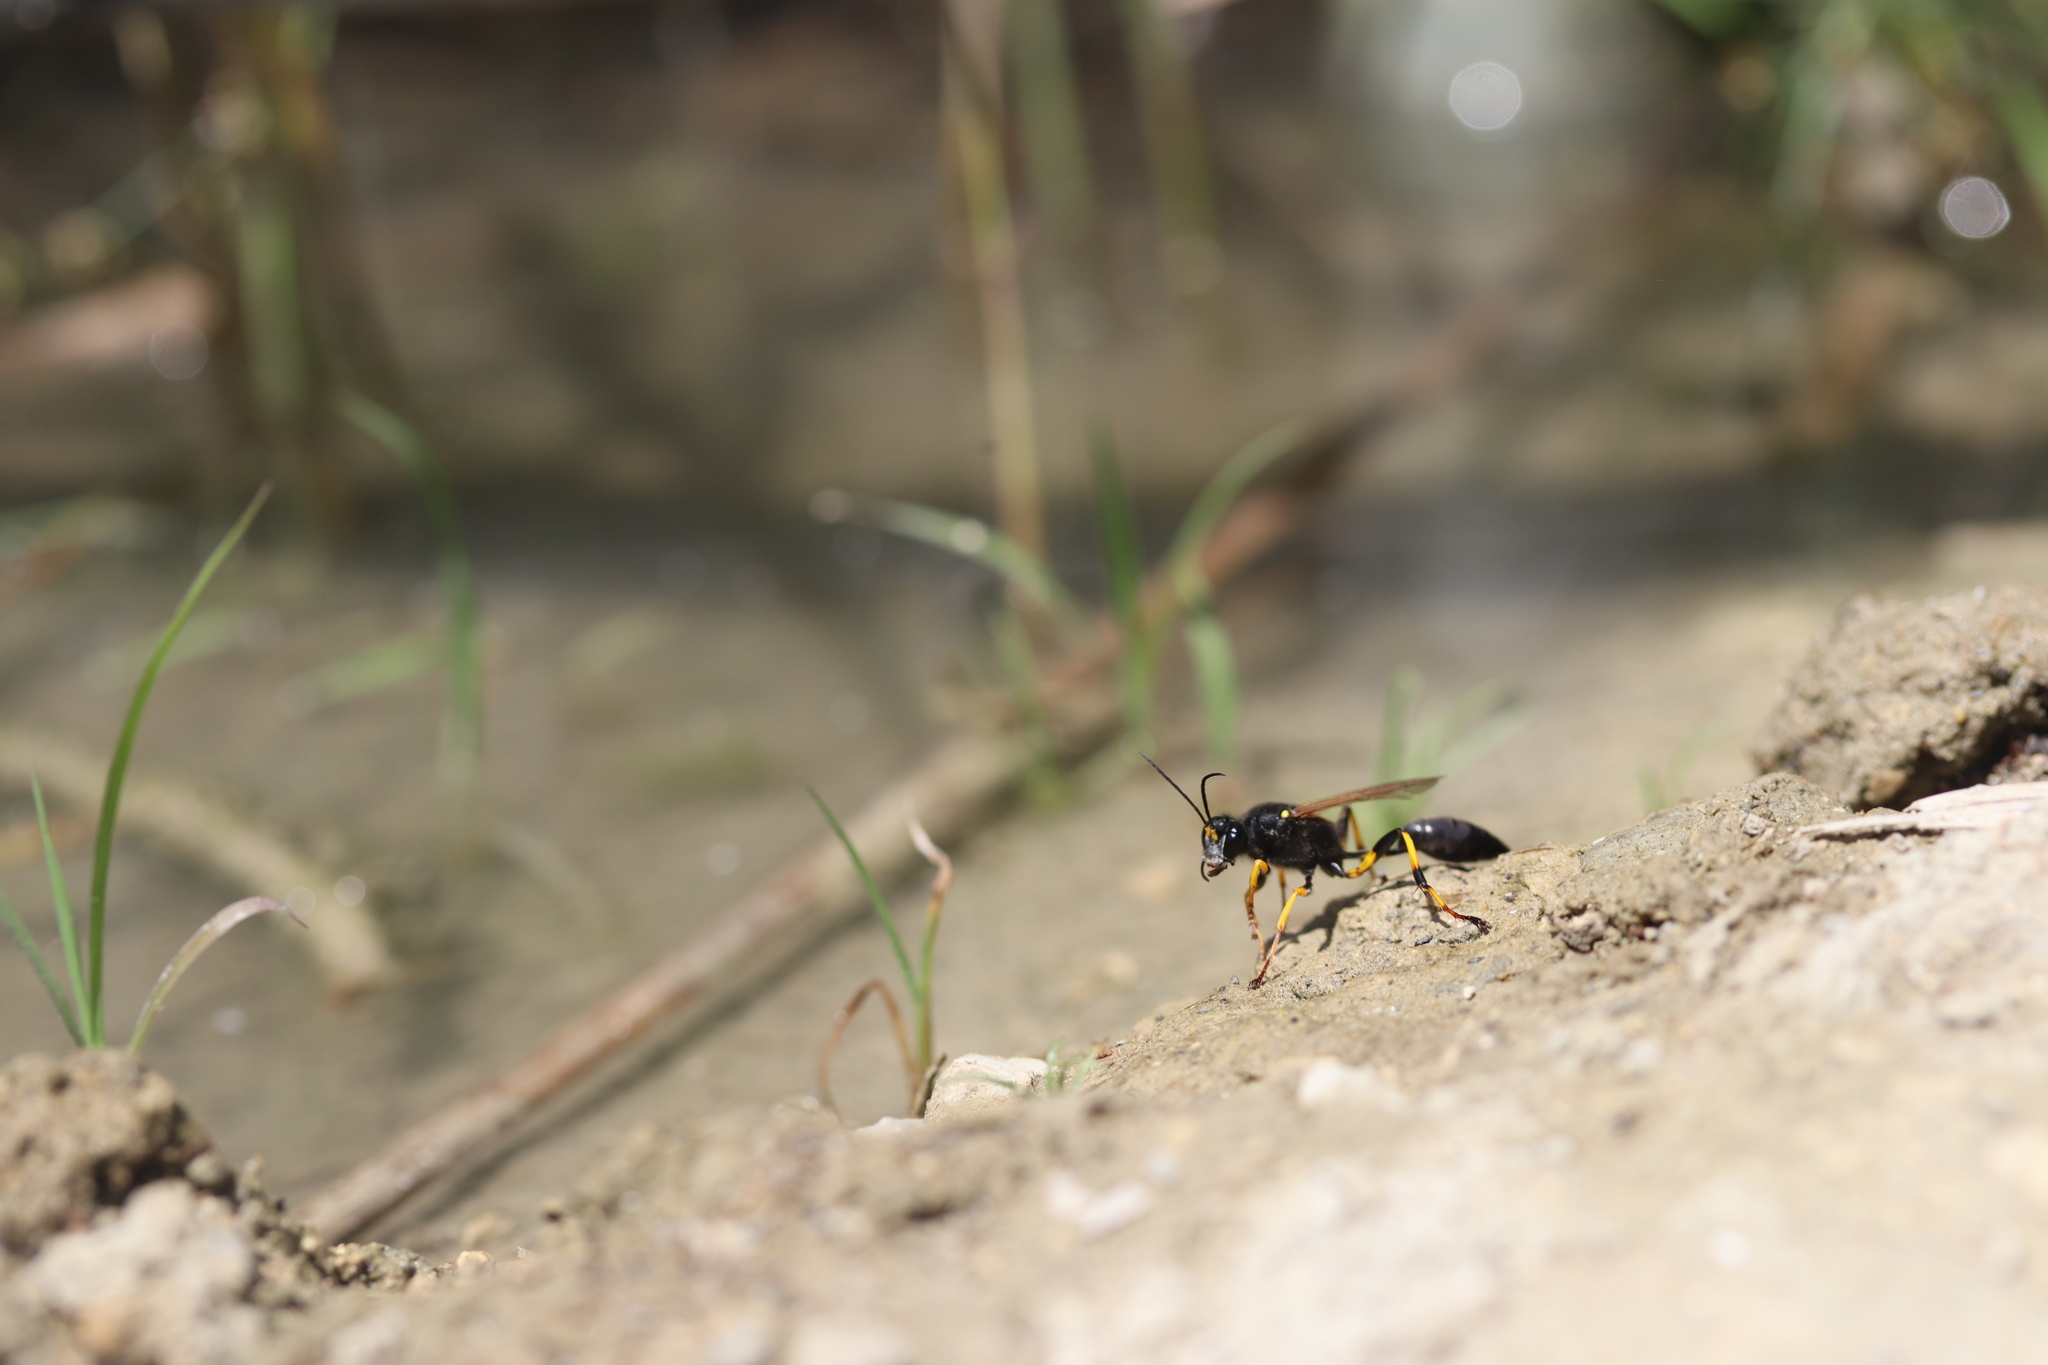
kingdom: Animalia
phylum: Arthropoda
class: Insecta
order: Hymenoptera
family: Sphecidae
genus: Sceliphron
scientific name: Sceliphron destillatorium
